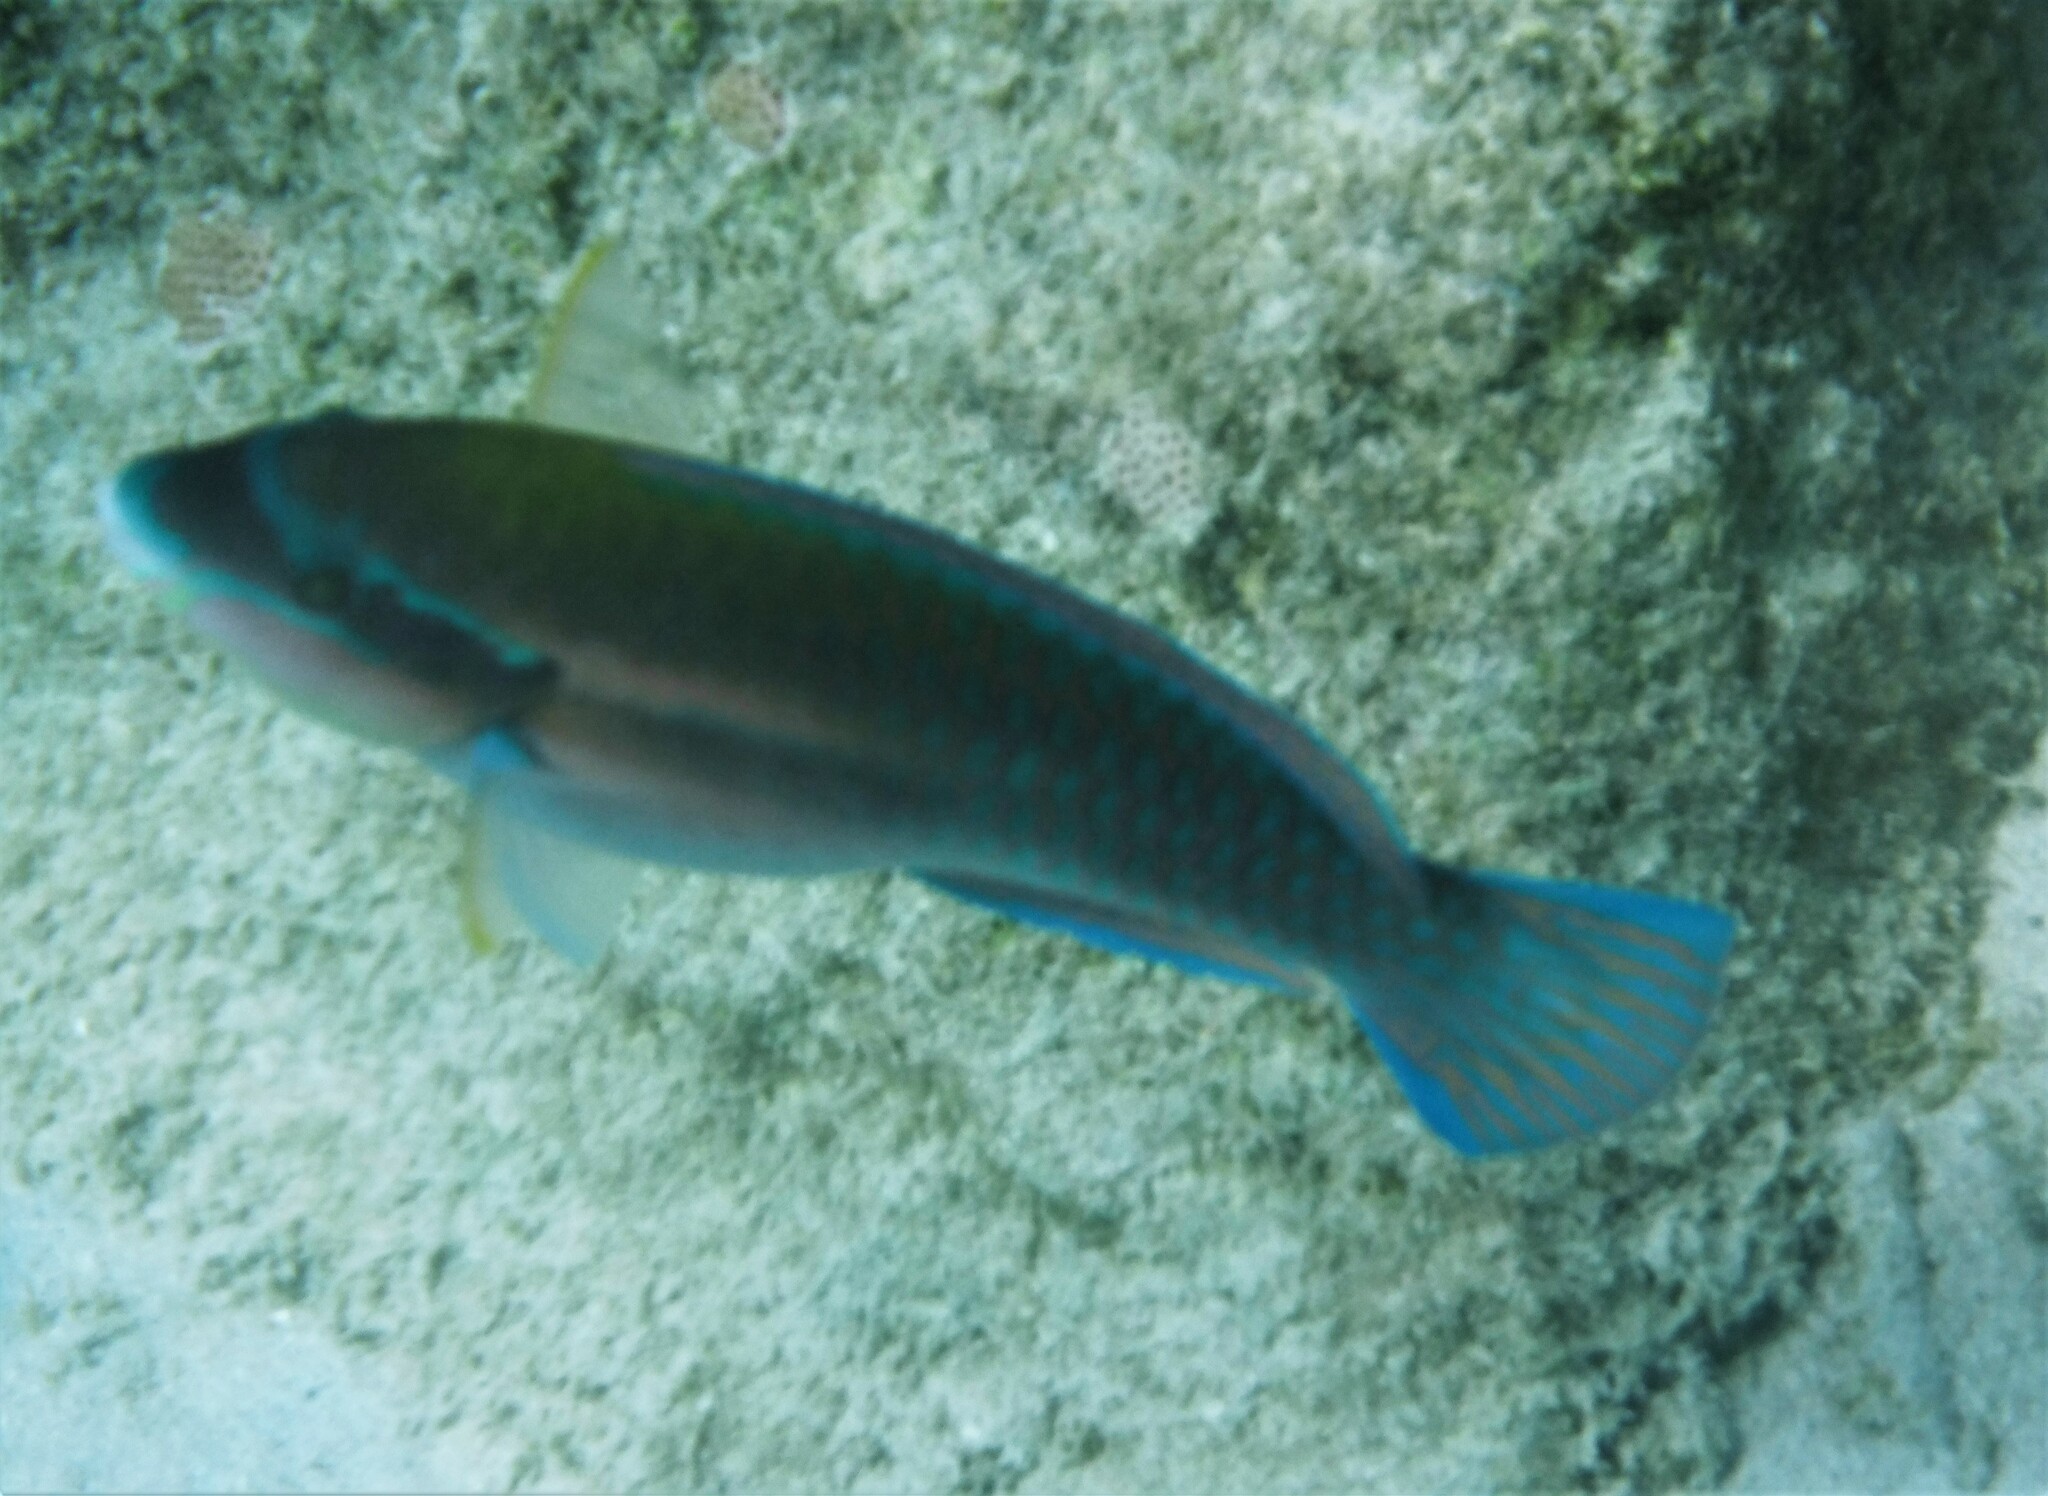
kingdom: Animalia
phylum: Chordata
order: Perciformes
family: Scaridae
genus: Scarus
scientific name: Scarus iseri
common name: Striped parrotfish
